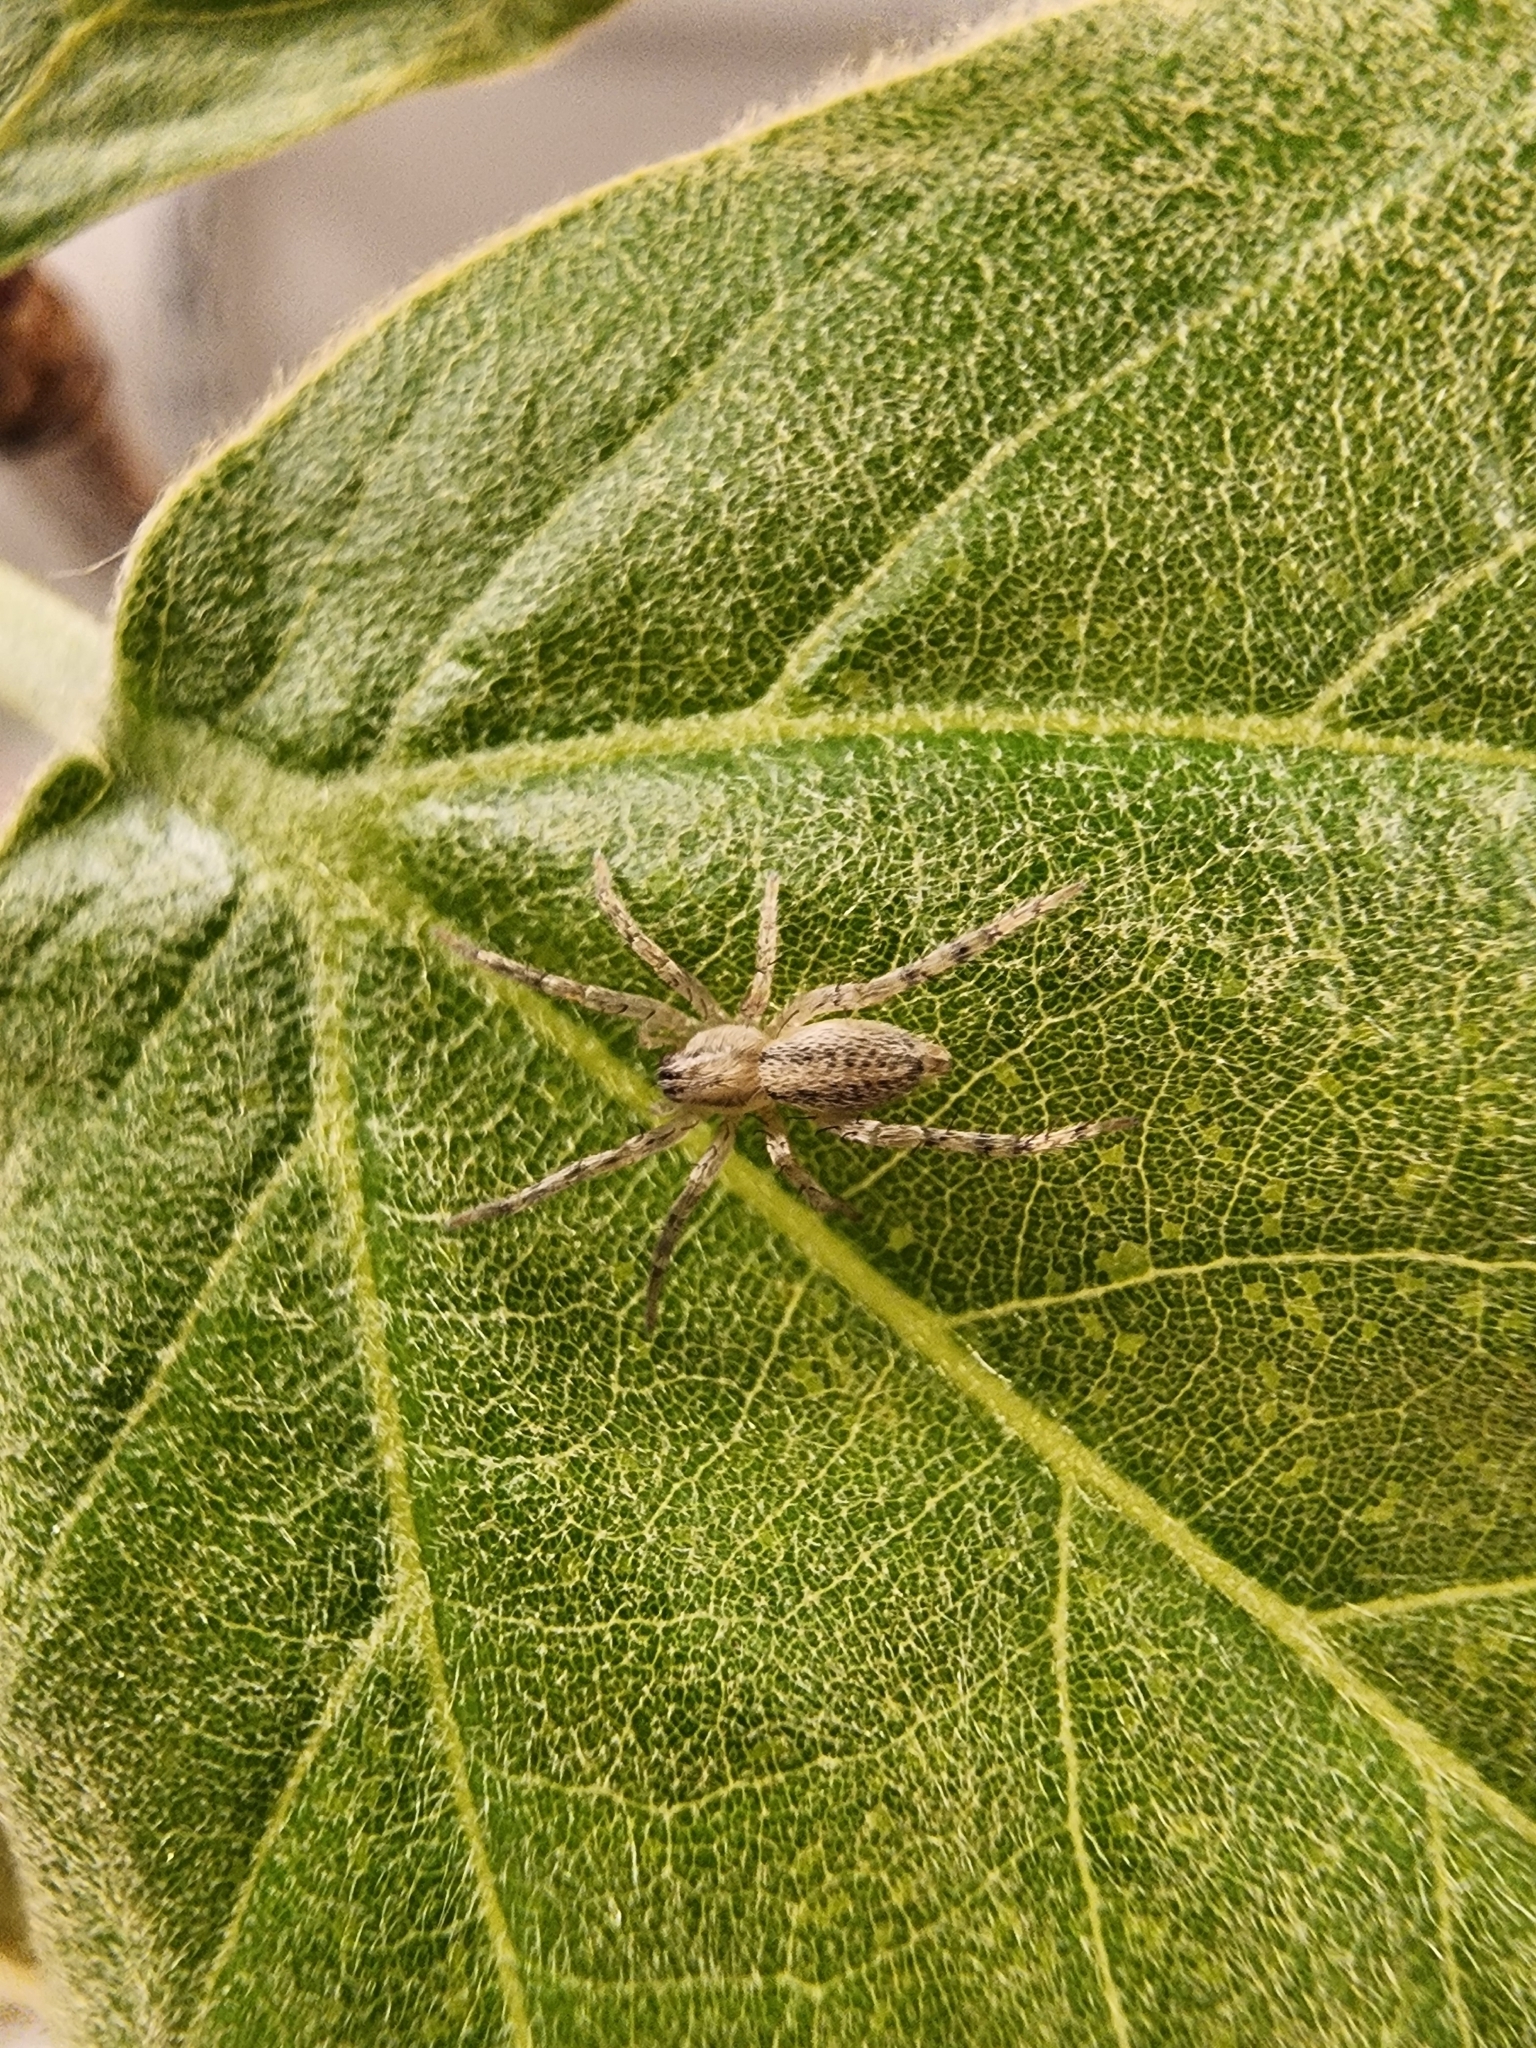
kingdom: Animalia
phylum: Arthropoda
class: Arachnida
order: Araneae
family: Anyphaenidae
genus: Hibana
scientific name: Hibana gracilis
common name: Garden ghost spider
